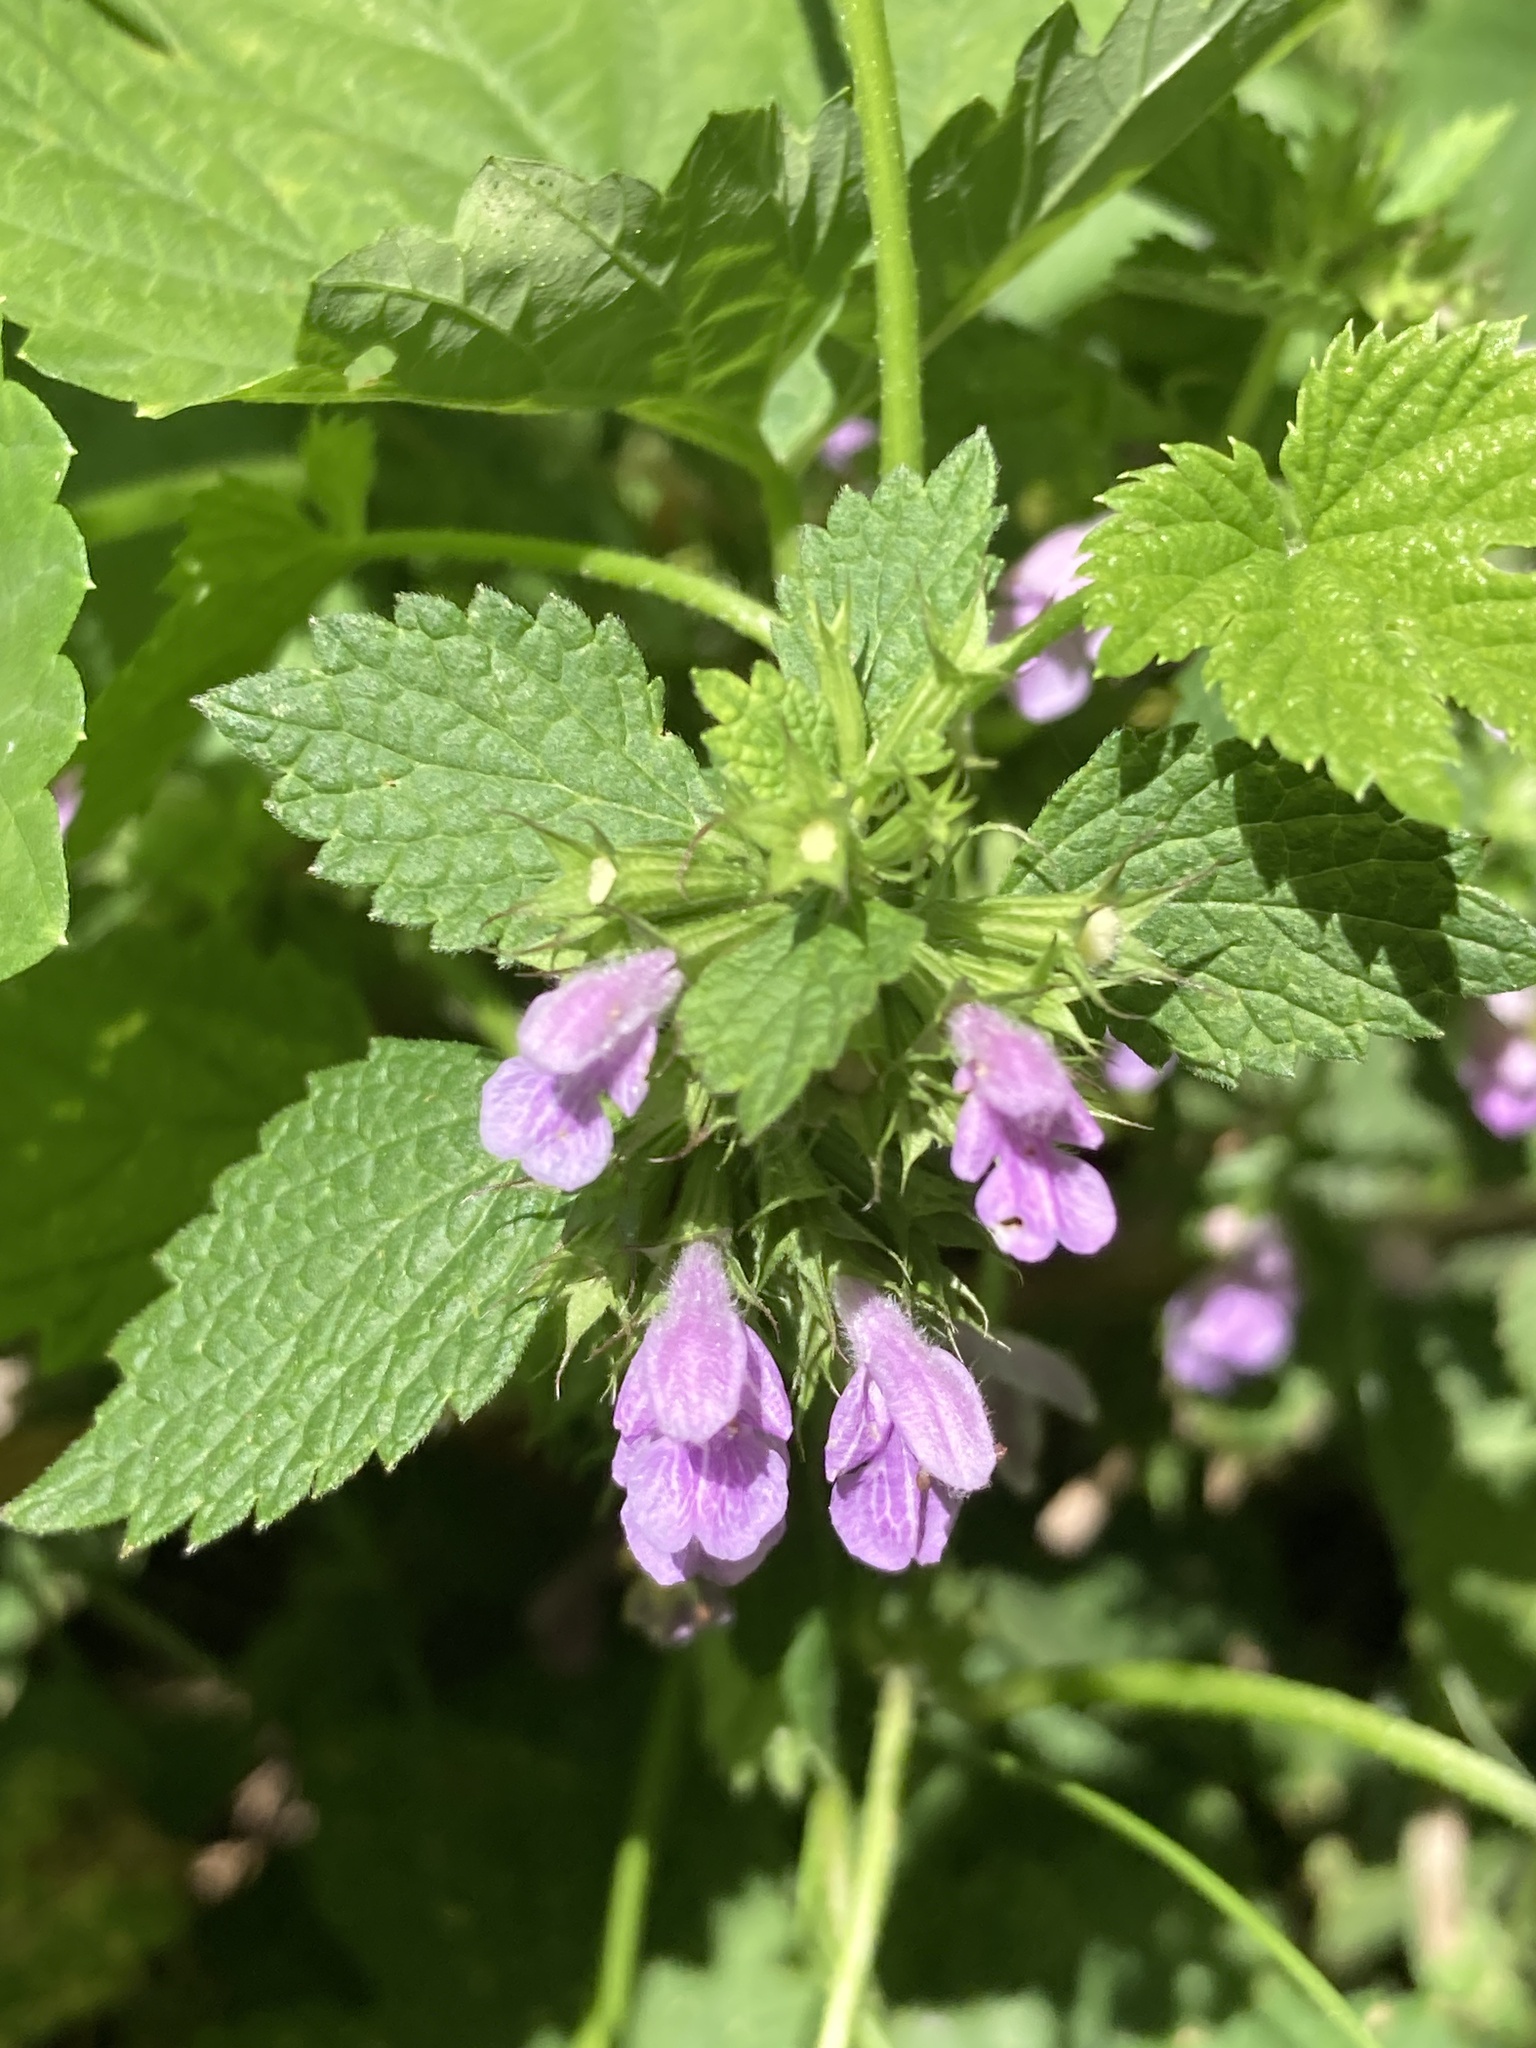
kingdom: Plantae
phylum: Tracheophyta
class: Magnoliopsida
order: Lamiales
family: Lamiaceae
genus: Ballota
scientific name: Ballota nigra
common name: Black horehound
